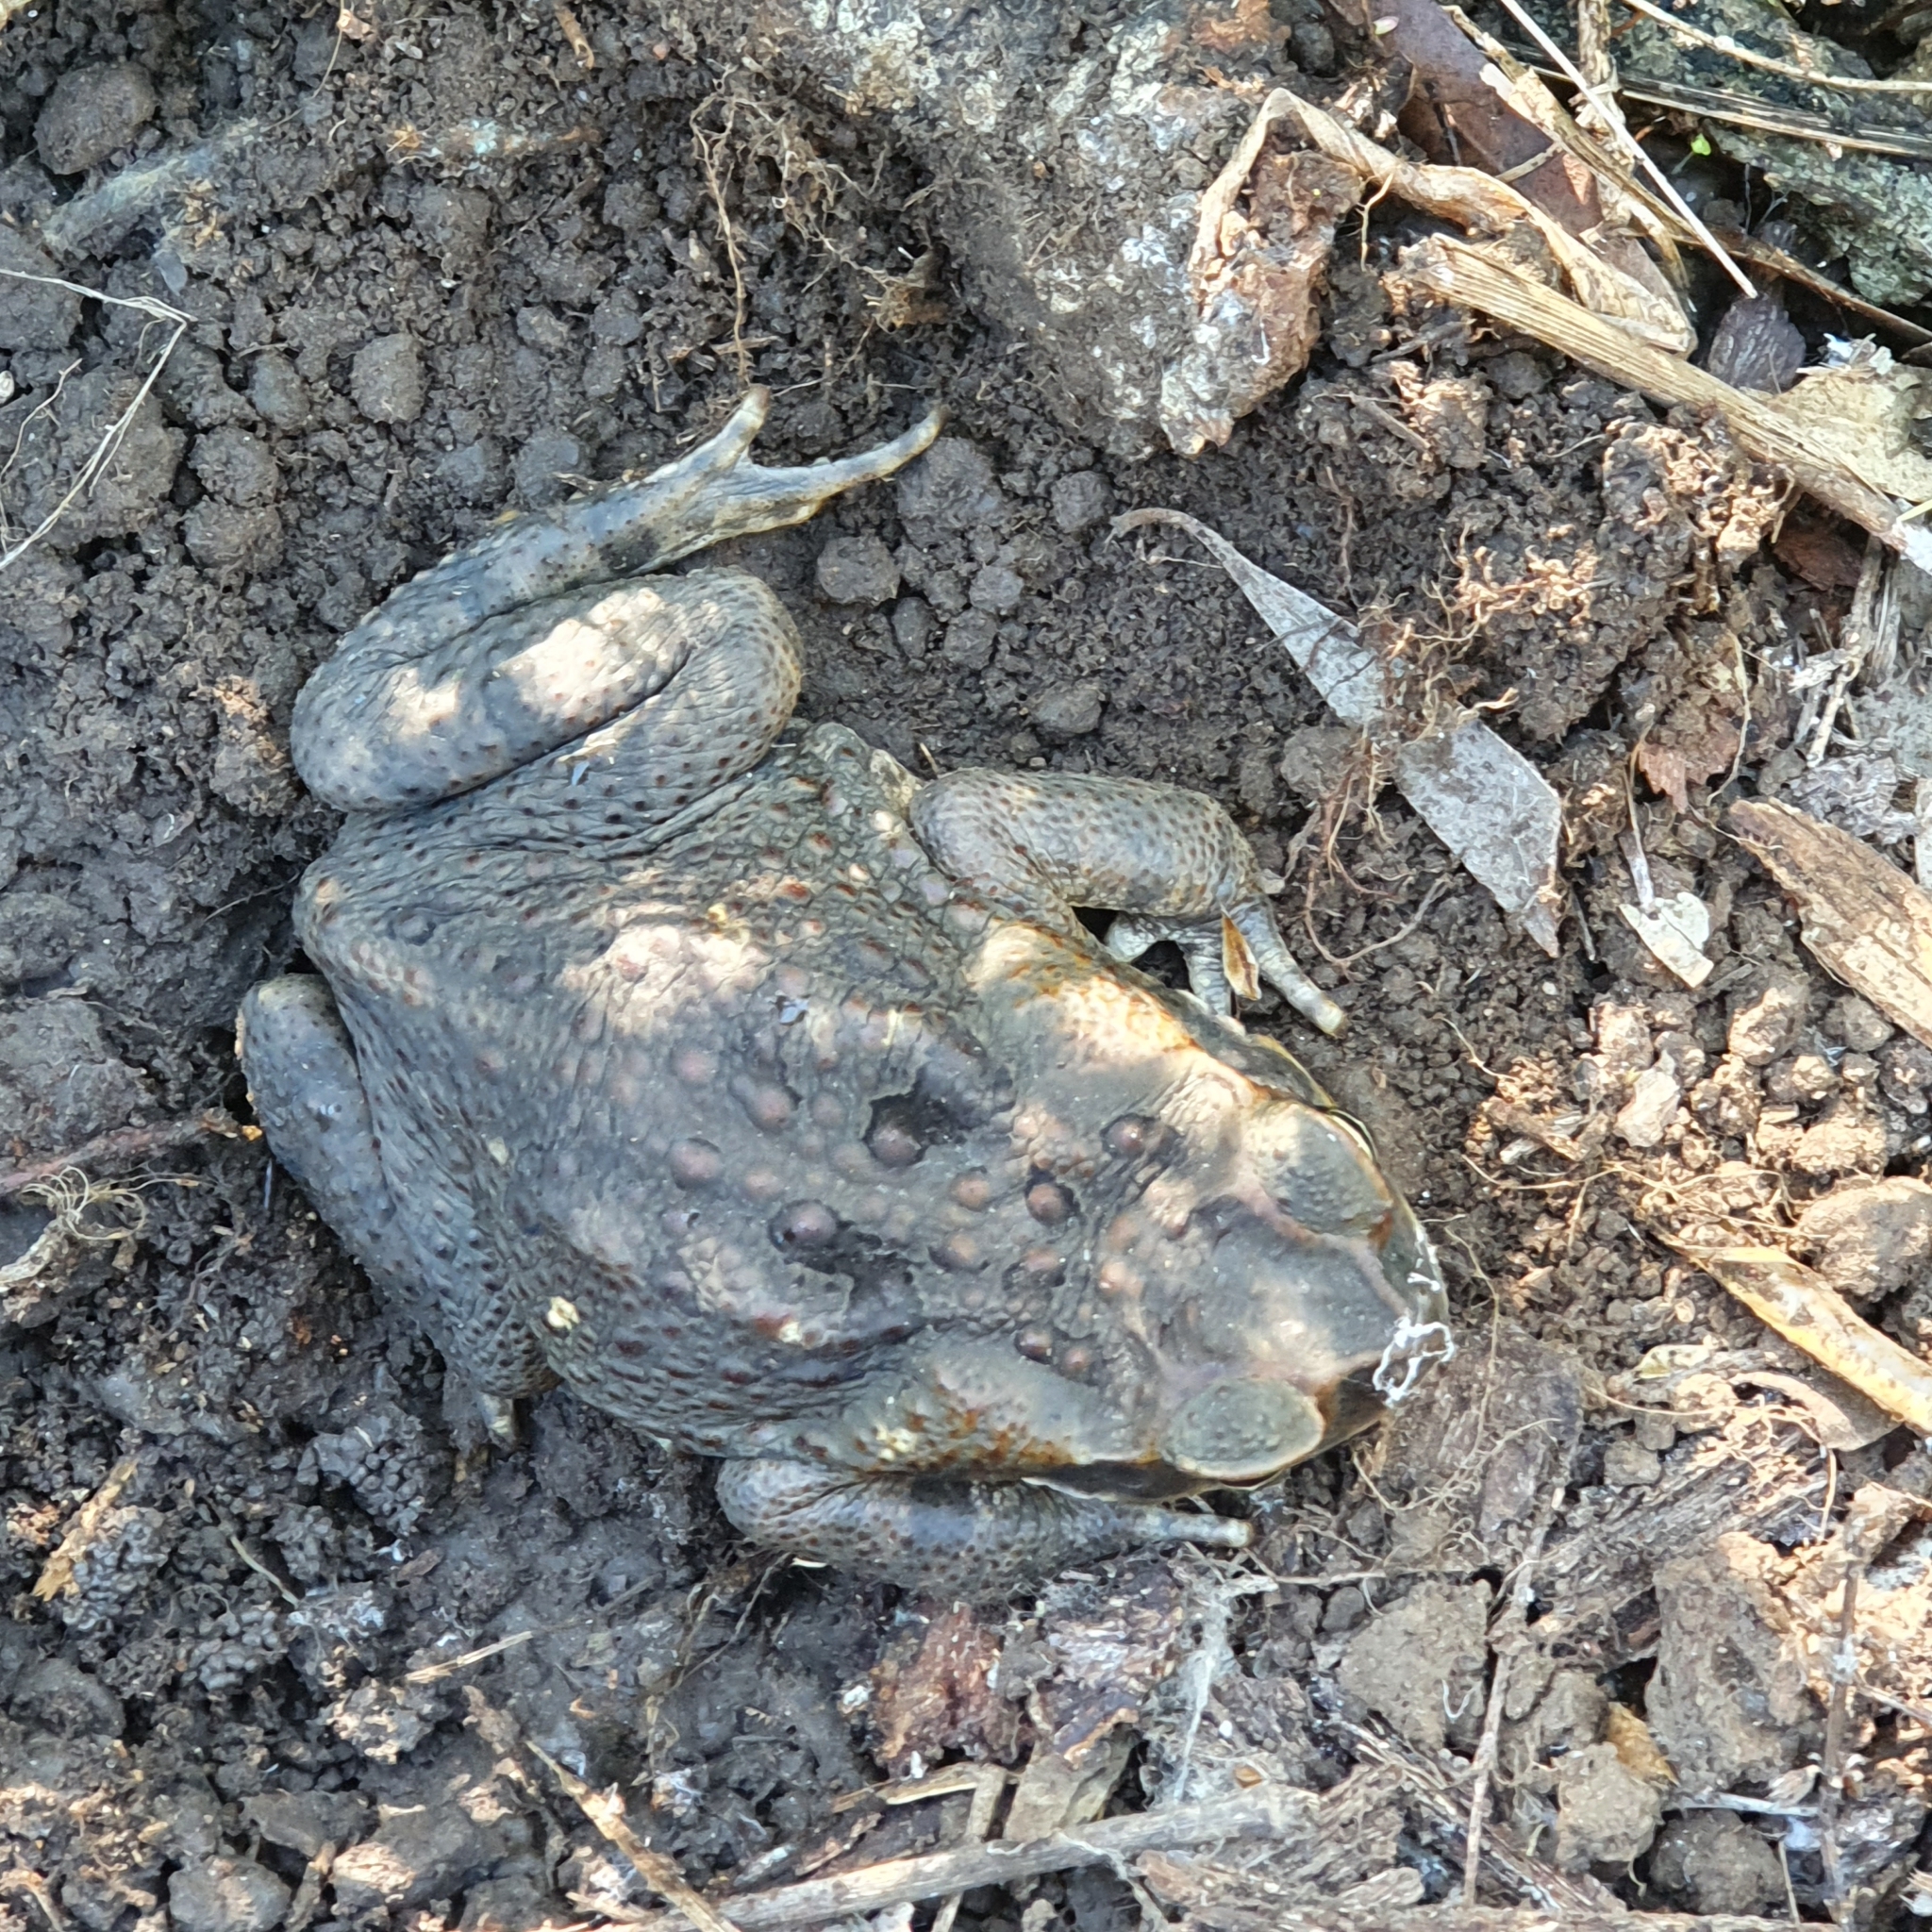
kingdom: Animalia
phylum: Chordata
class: Amphibia
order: Anura
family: Bufonidae
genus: Rhinella
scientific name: Rhinella marina
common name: Cane toad
